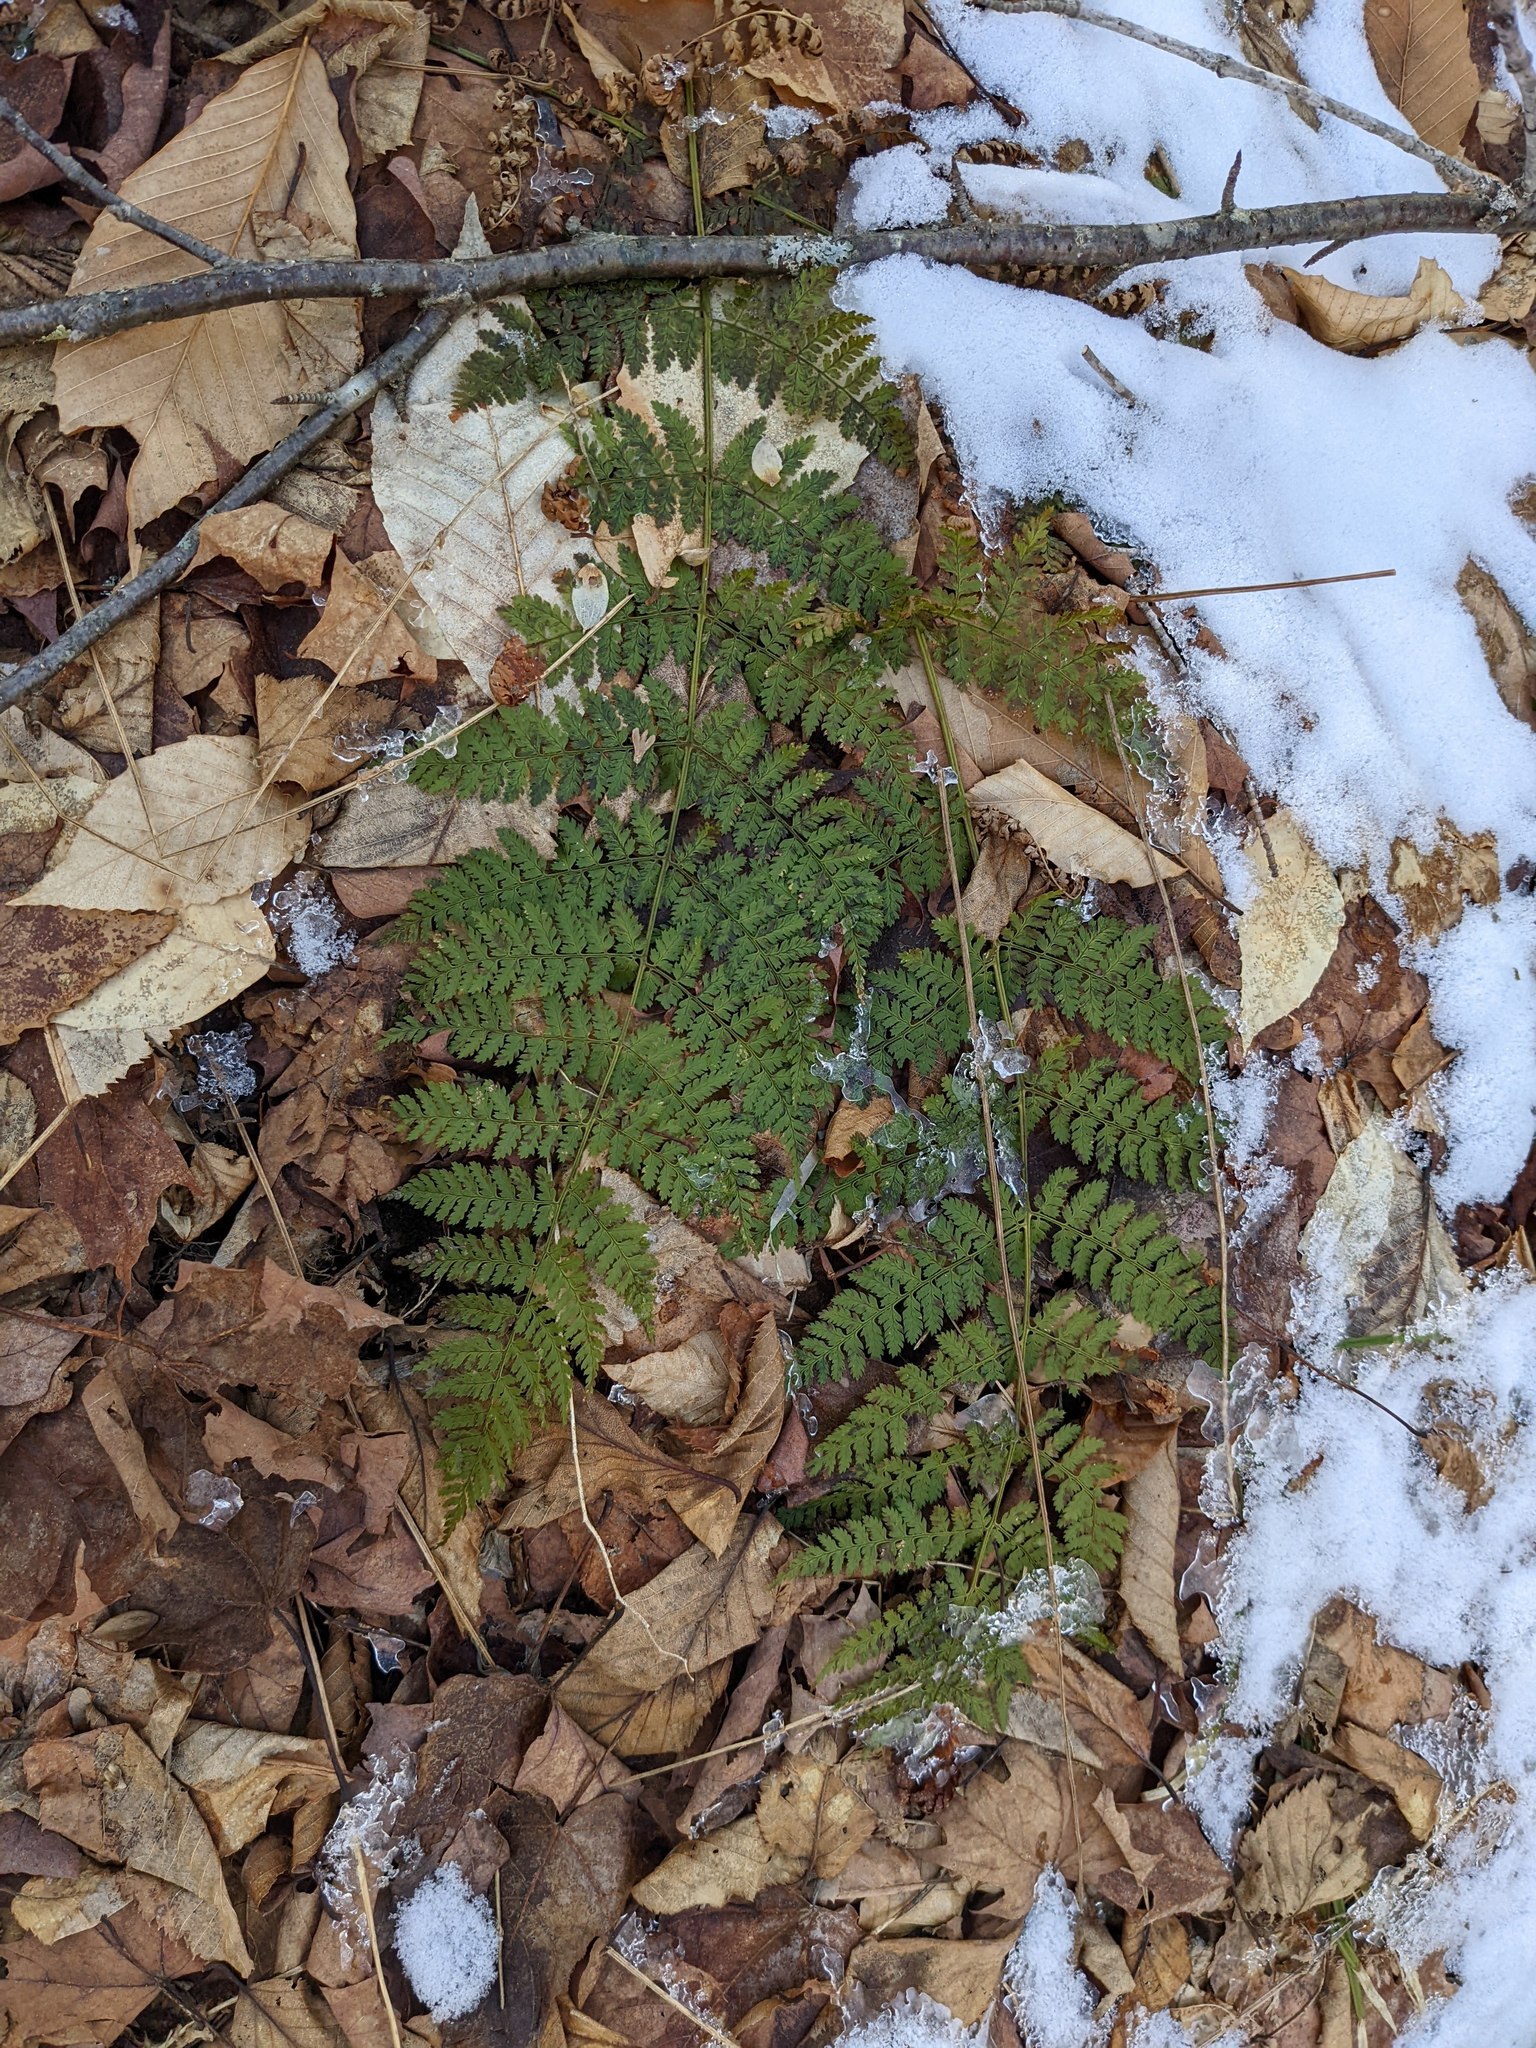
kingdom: Plantae
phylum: Tracheophyta
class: Polypodiopsida
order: Polypodiales
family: Dryopteridaceae
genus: Dryopteris
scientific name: Dryopteris intermedia
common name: Evergreen wood fern
